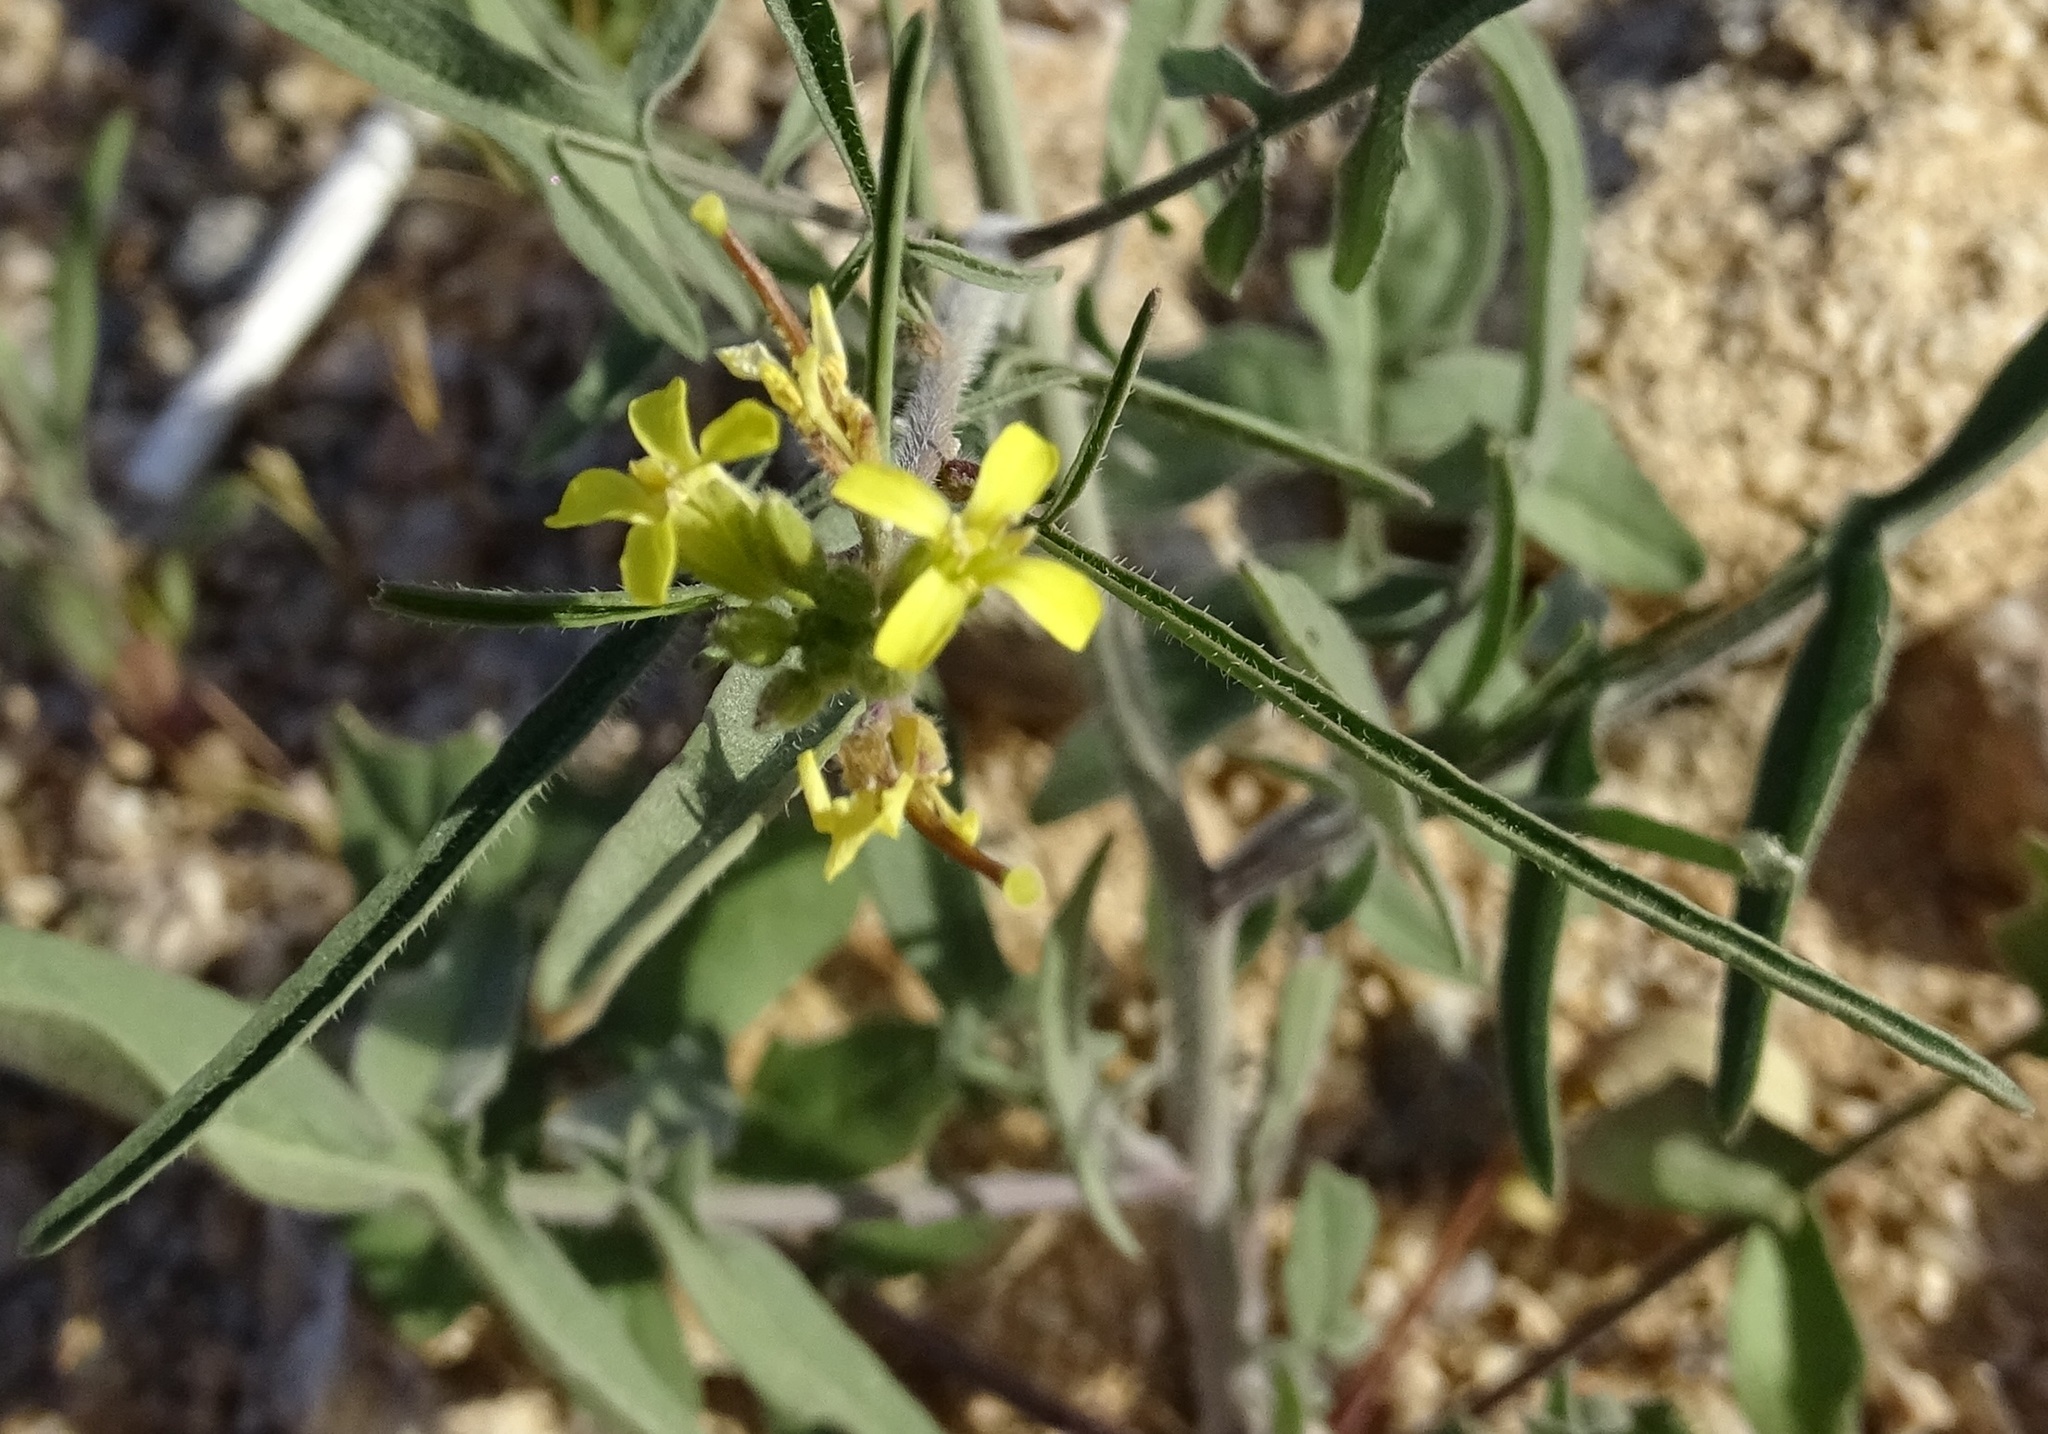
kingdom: Plantae
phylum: Tracheophyta
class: Magnoliopsida
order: Brassicales
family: Brassicaceae
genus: Sisymbrium
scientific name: Sisymbrium orientale
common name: Eastern rocket
